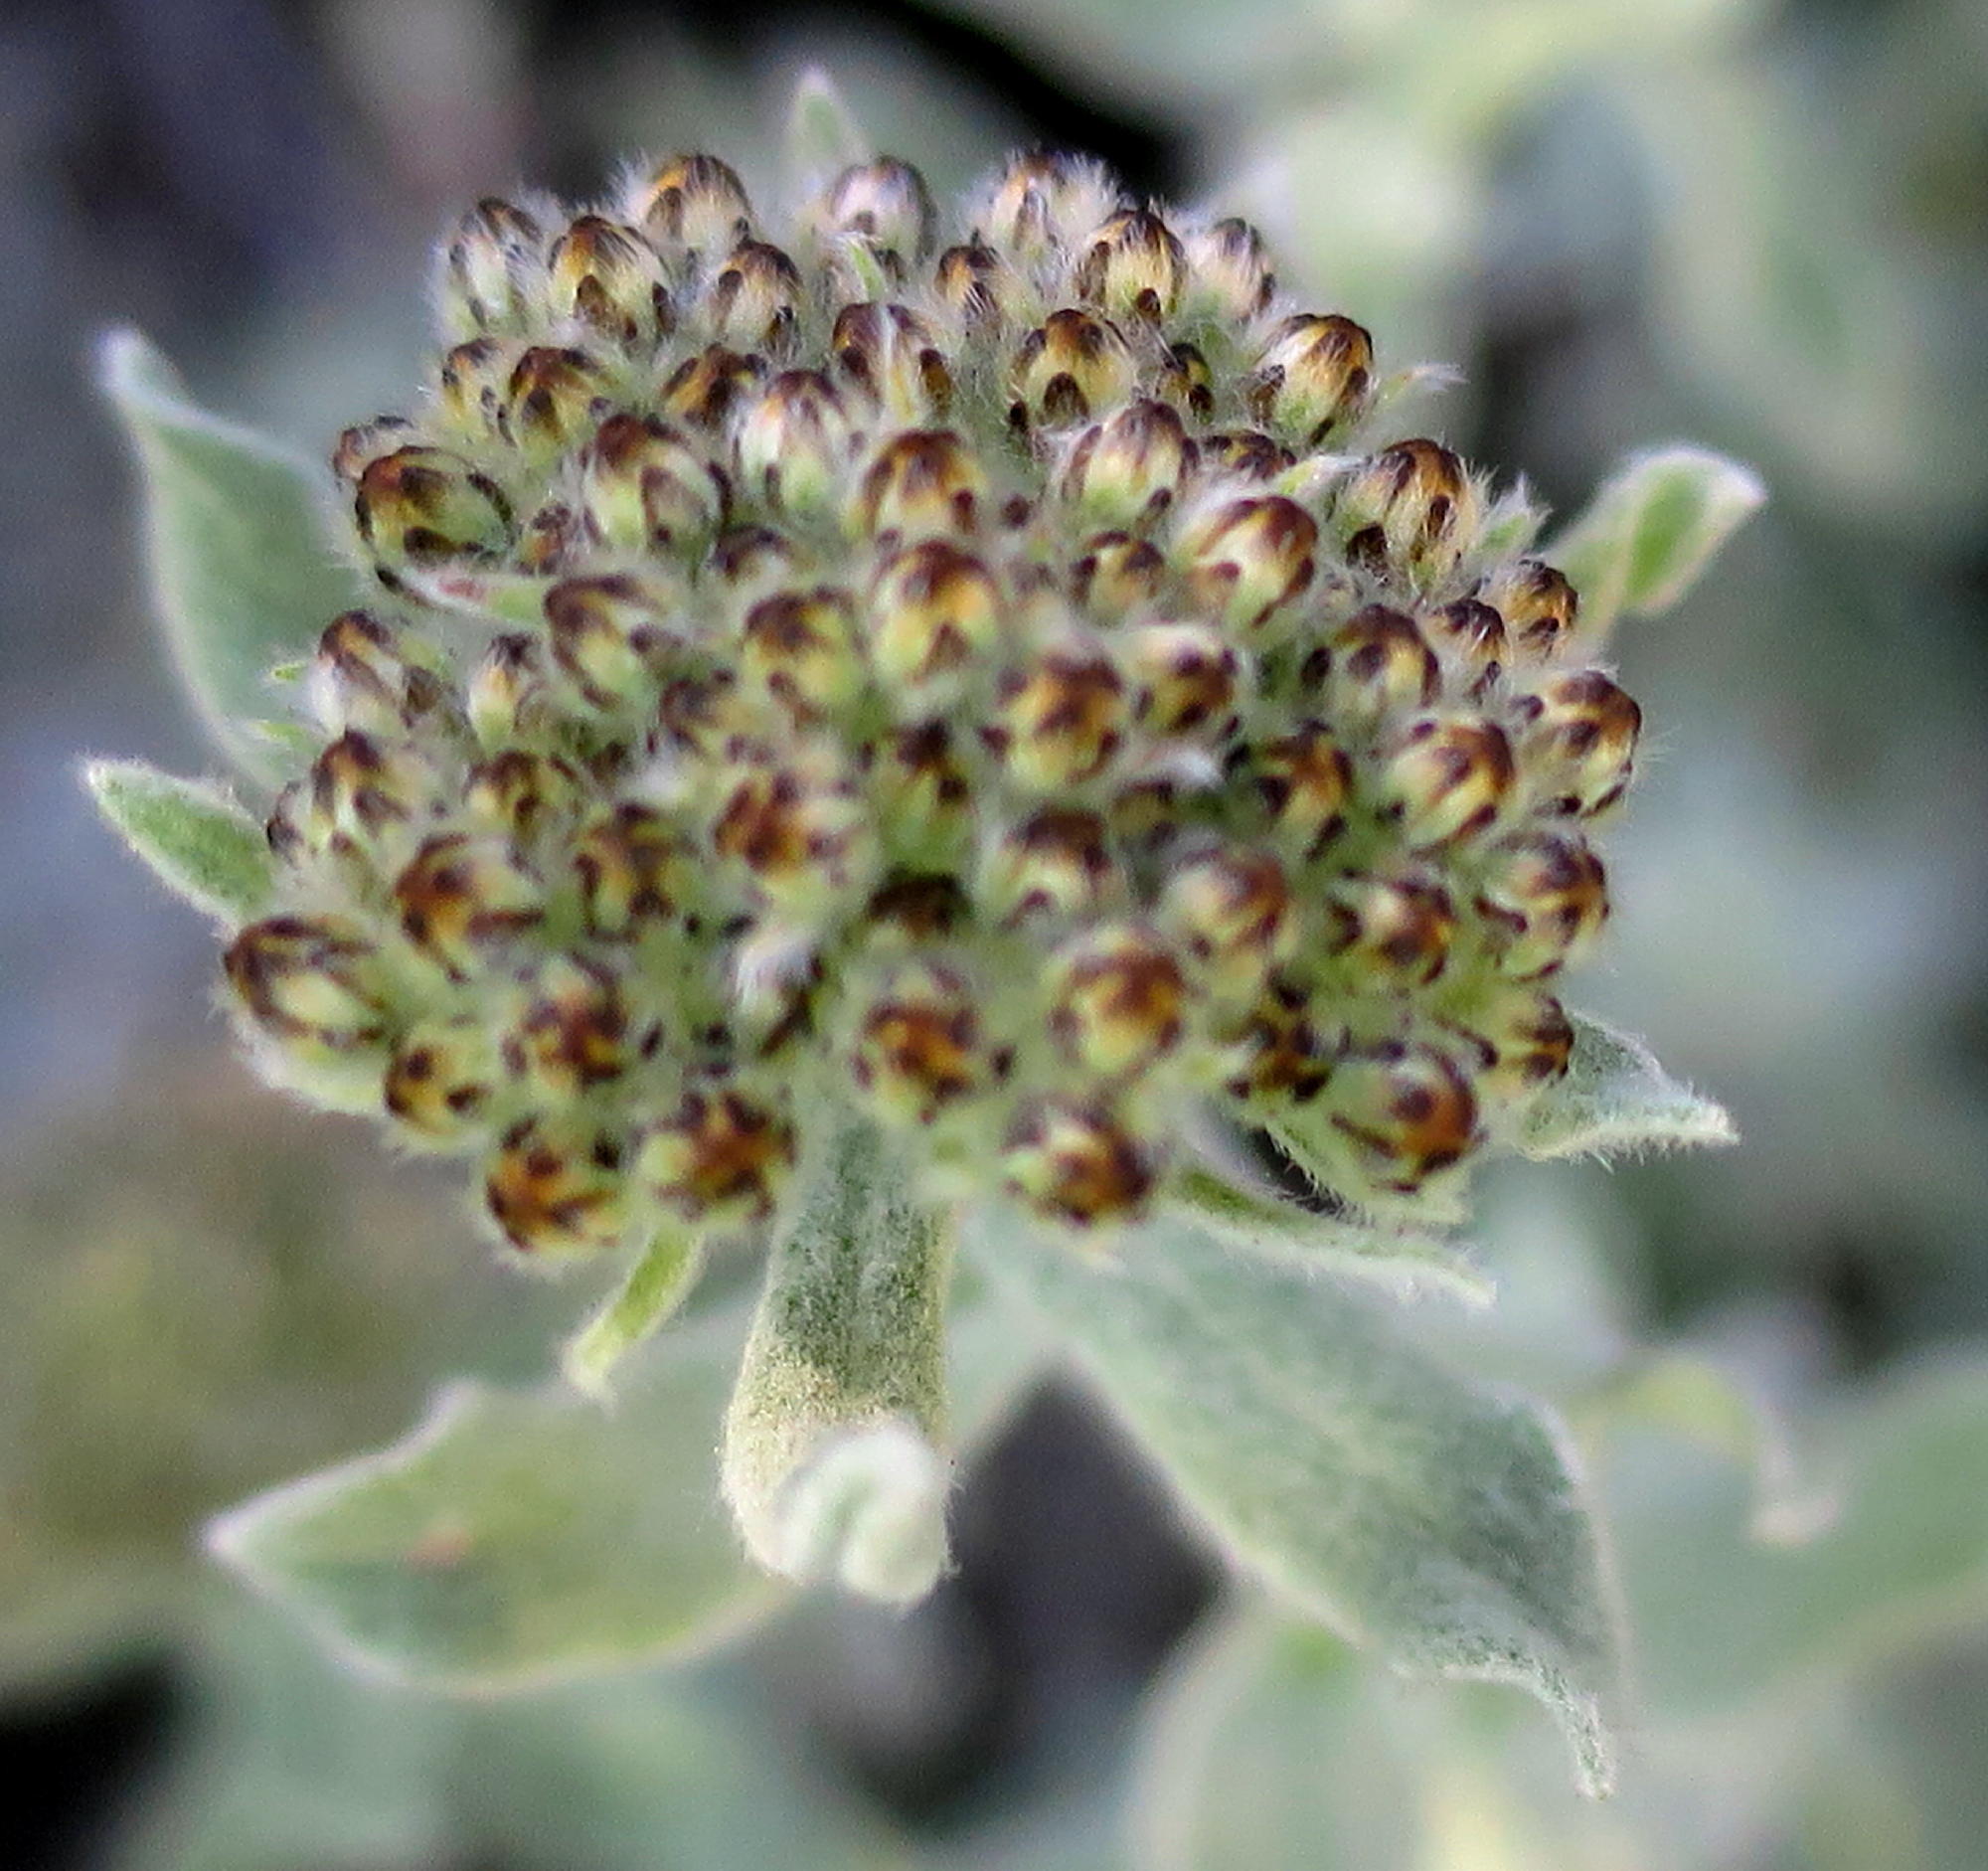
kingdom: Plantae
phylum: Tracheophyta
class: Magnoliopsida
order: Asterales
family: Asteraceae
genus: Helichrysum
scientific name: Helichrysum dasyanthum
